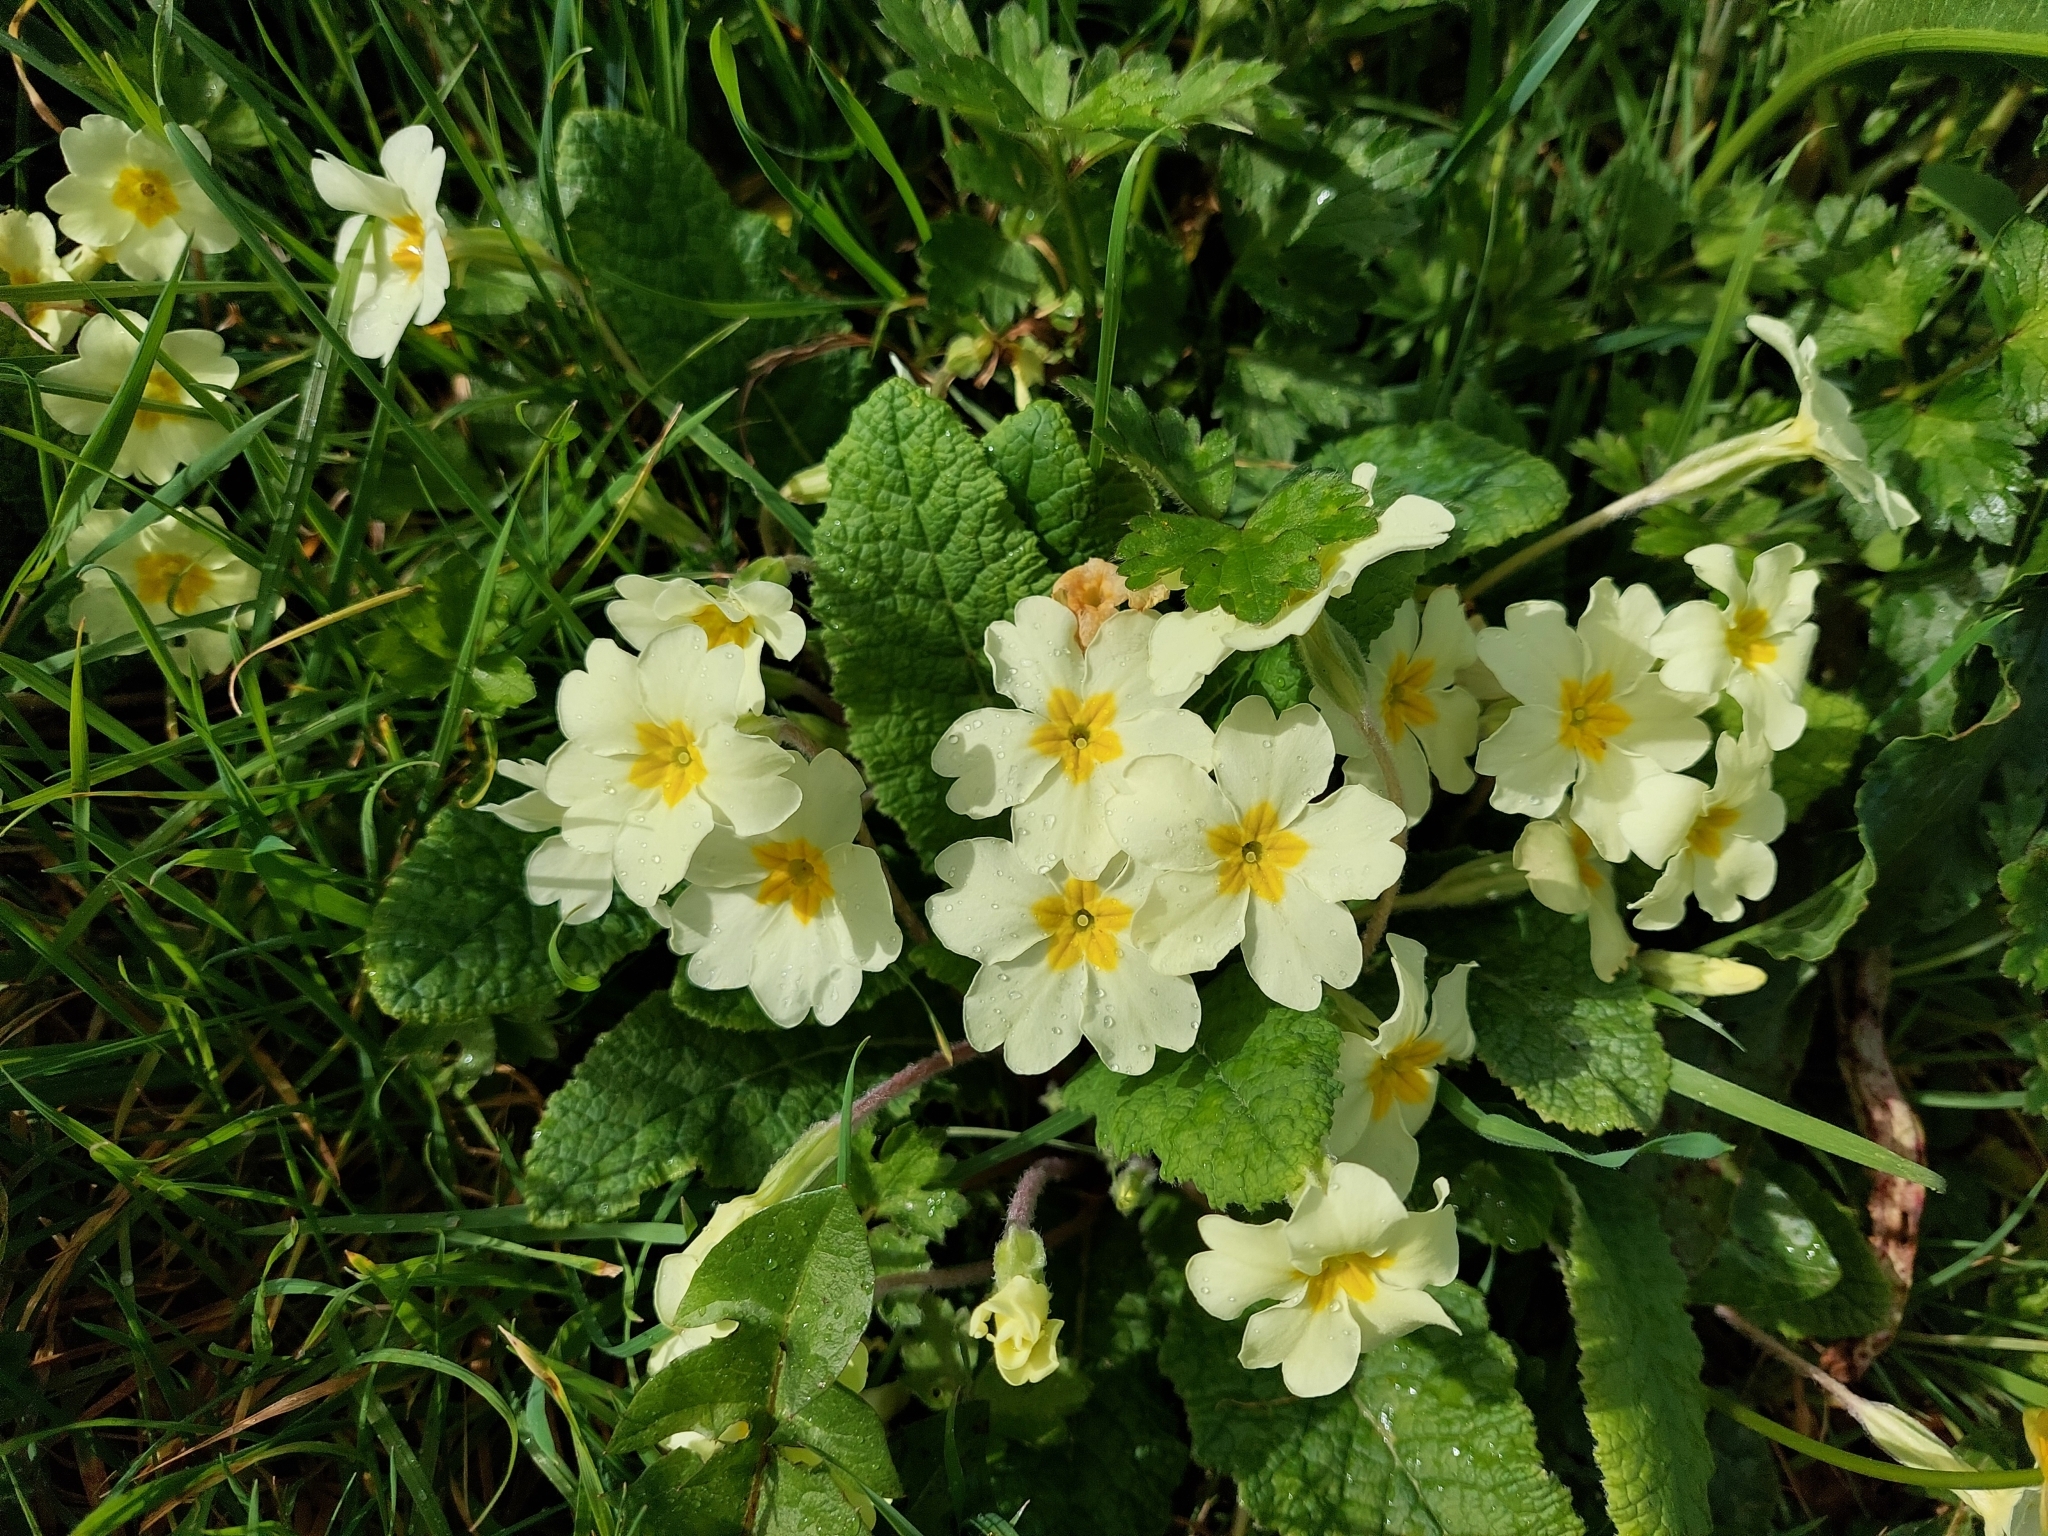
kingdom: Plantae
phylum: Tracheophyta
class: Magnoliopsida
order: Ericales
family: Primulaceae
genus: Primula
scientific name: Primula vulgaris
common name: Primrose
